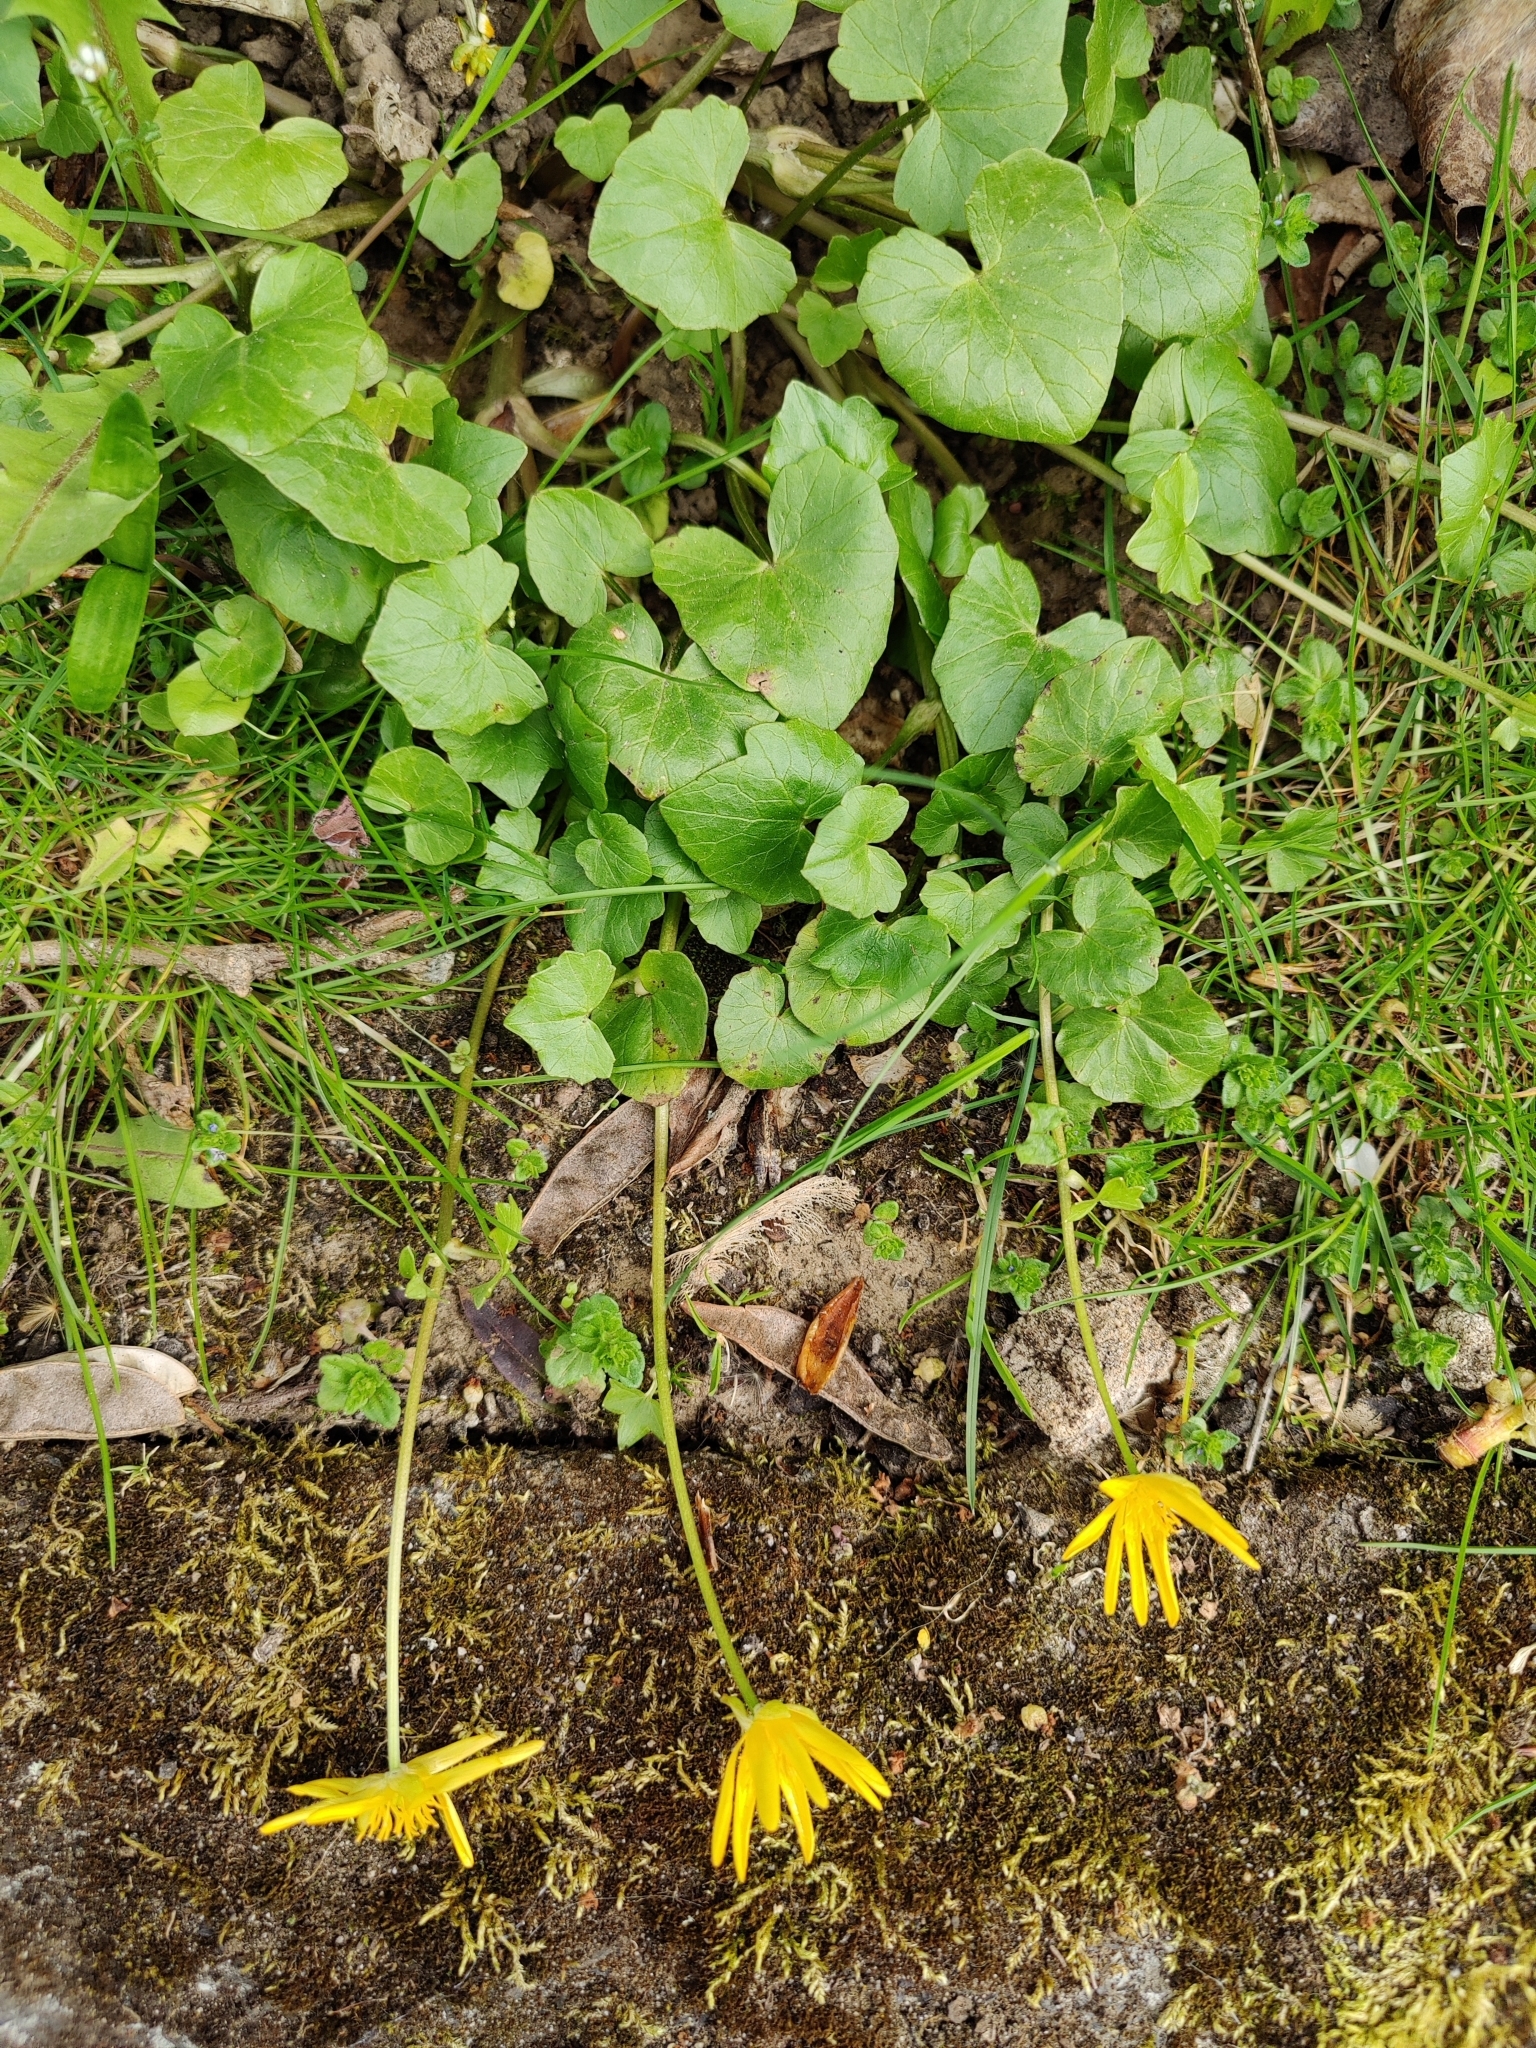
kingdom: Plantae
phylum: Tracheophyta
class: Magnoliopsida
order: Ranunculales
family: Ranunculaceae
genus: Ficaria
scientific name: Ficaria verna
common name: Lesser celandine
